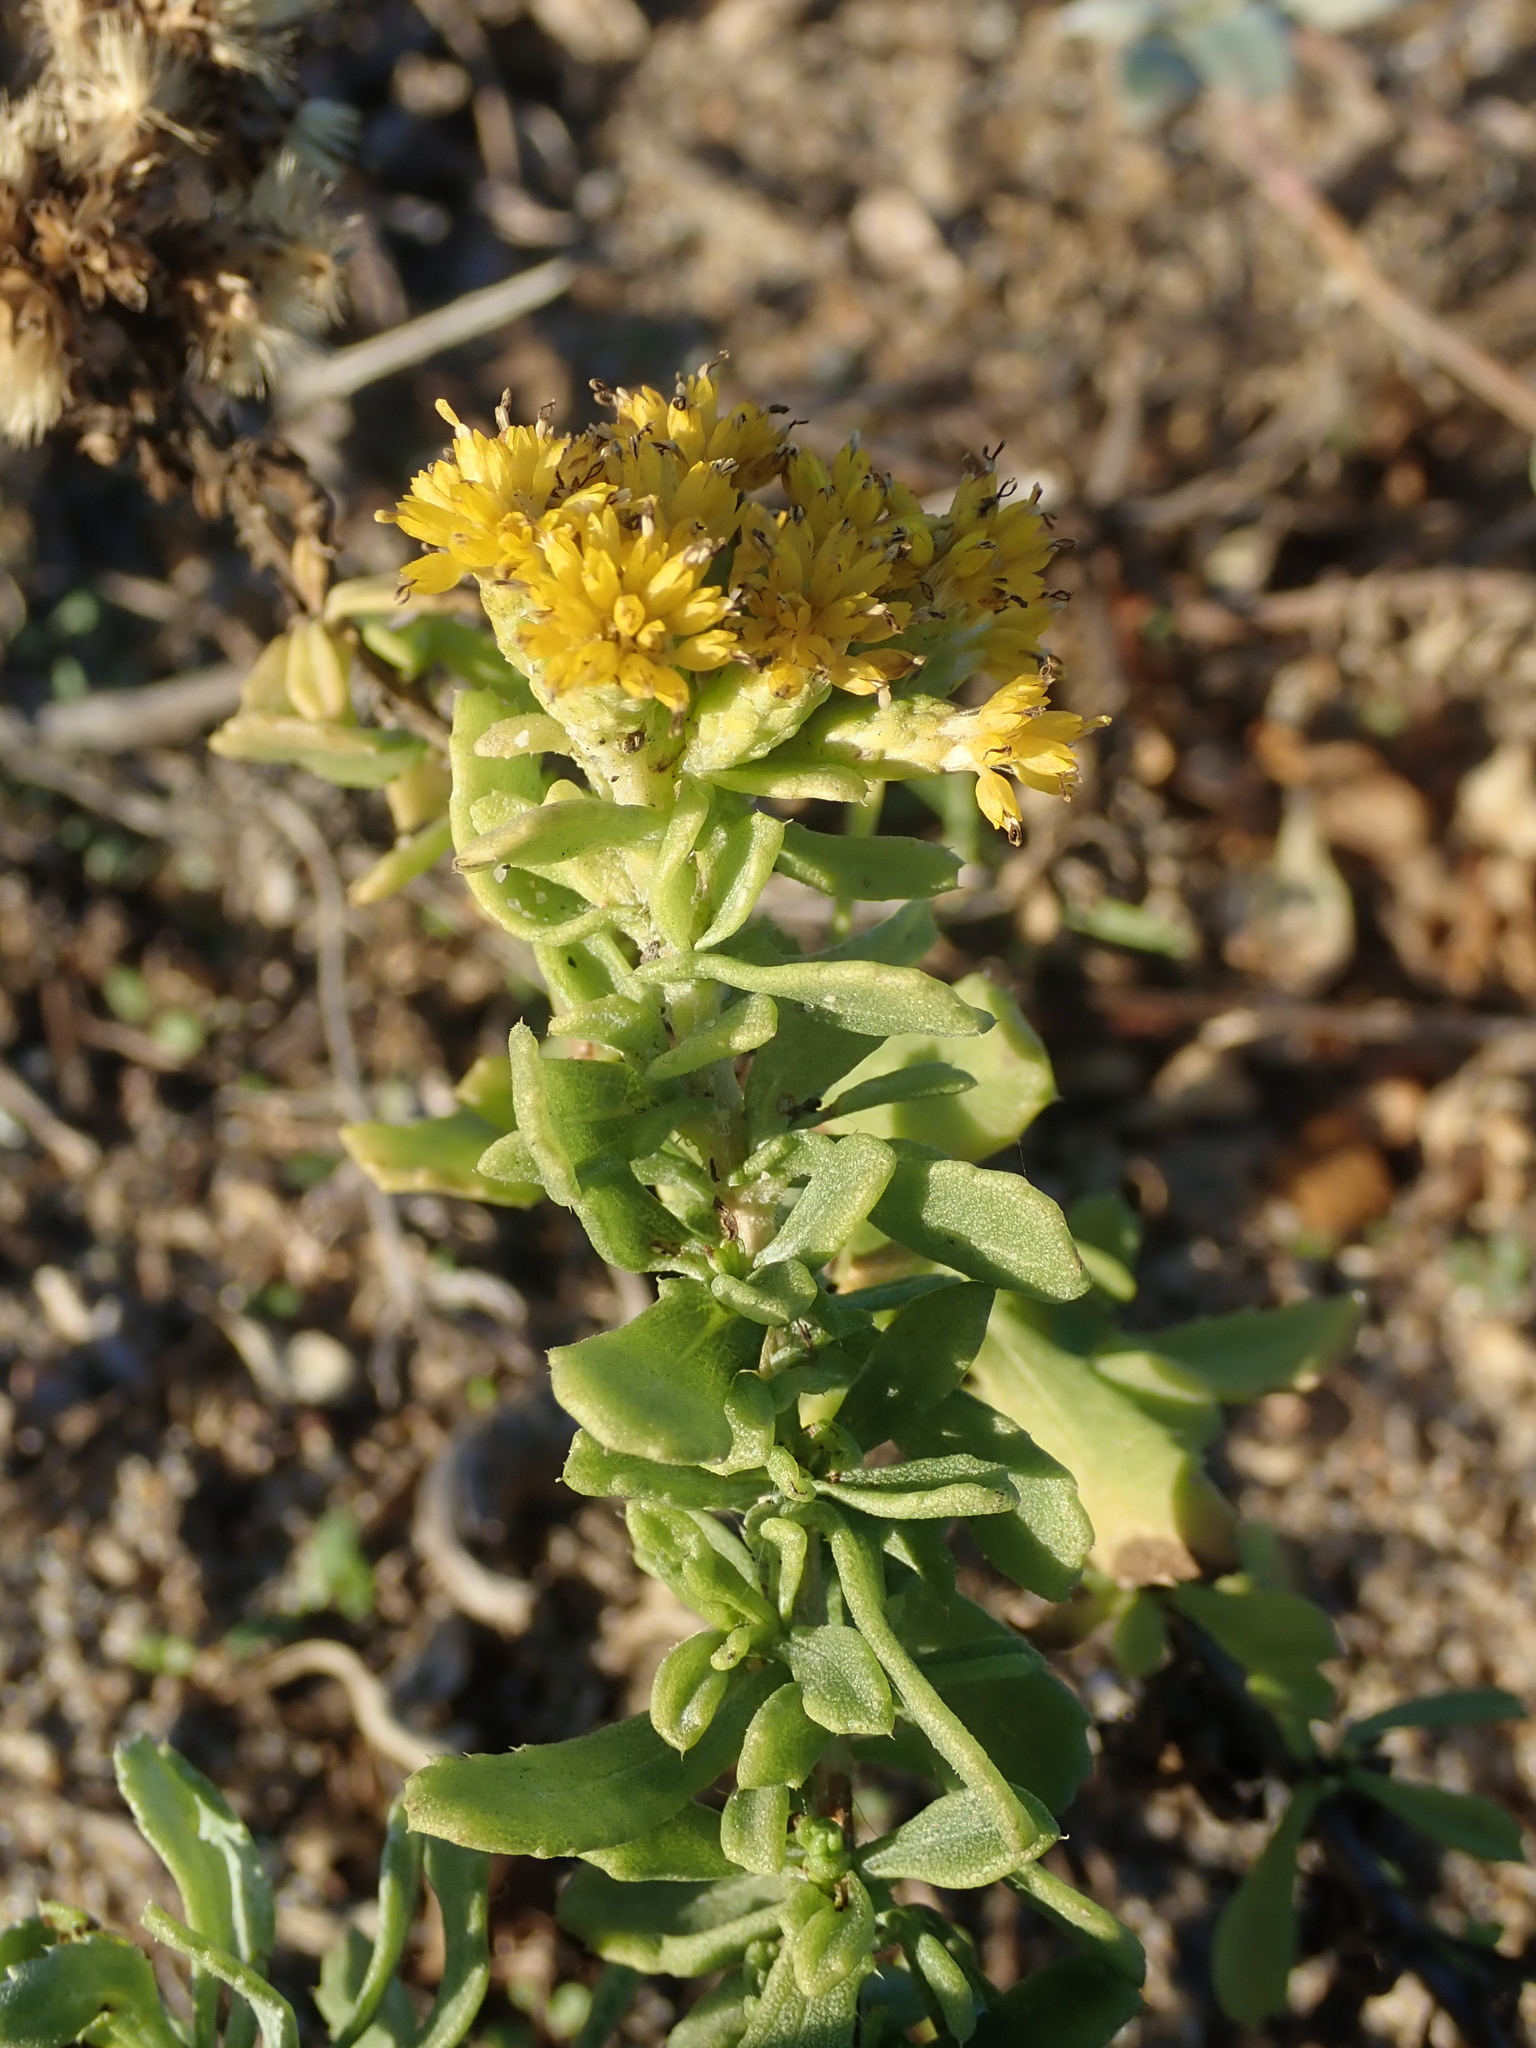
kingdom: Plantae
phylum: Tracheophyta
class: Magnoliopsida
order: Asterales
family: Asteraceae
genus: Isocoma
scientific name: Isocoma menziesii
